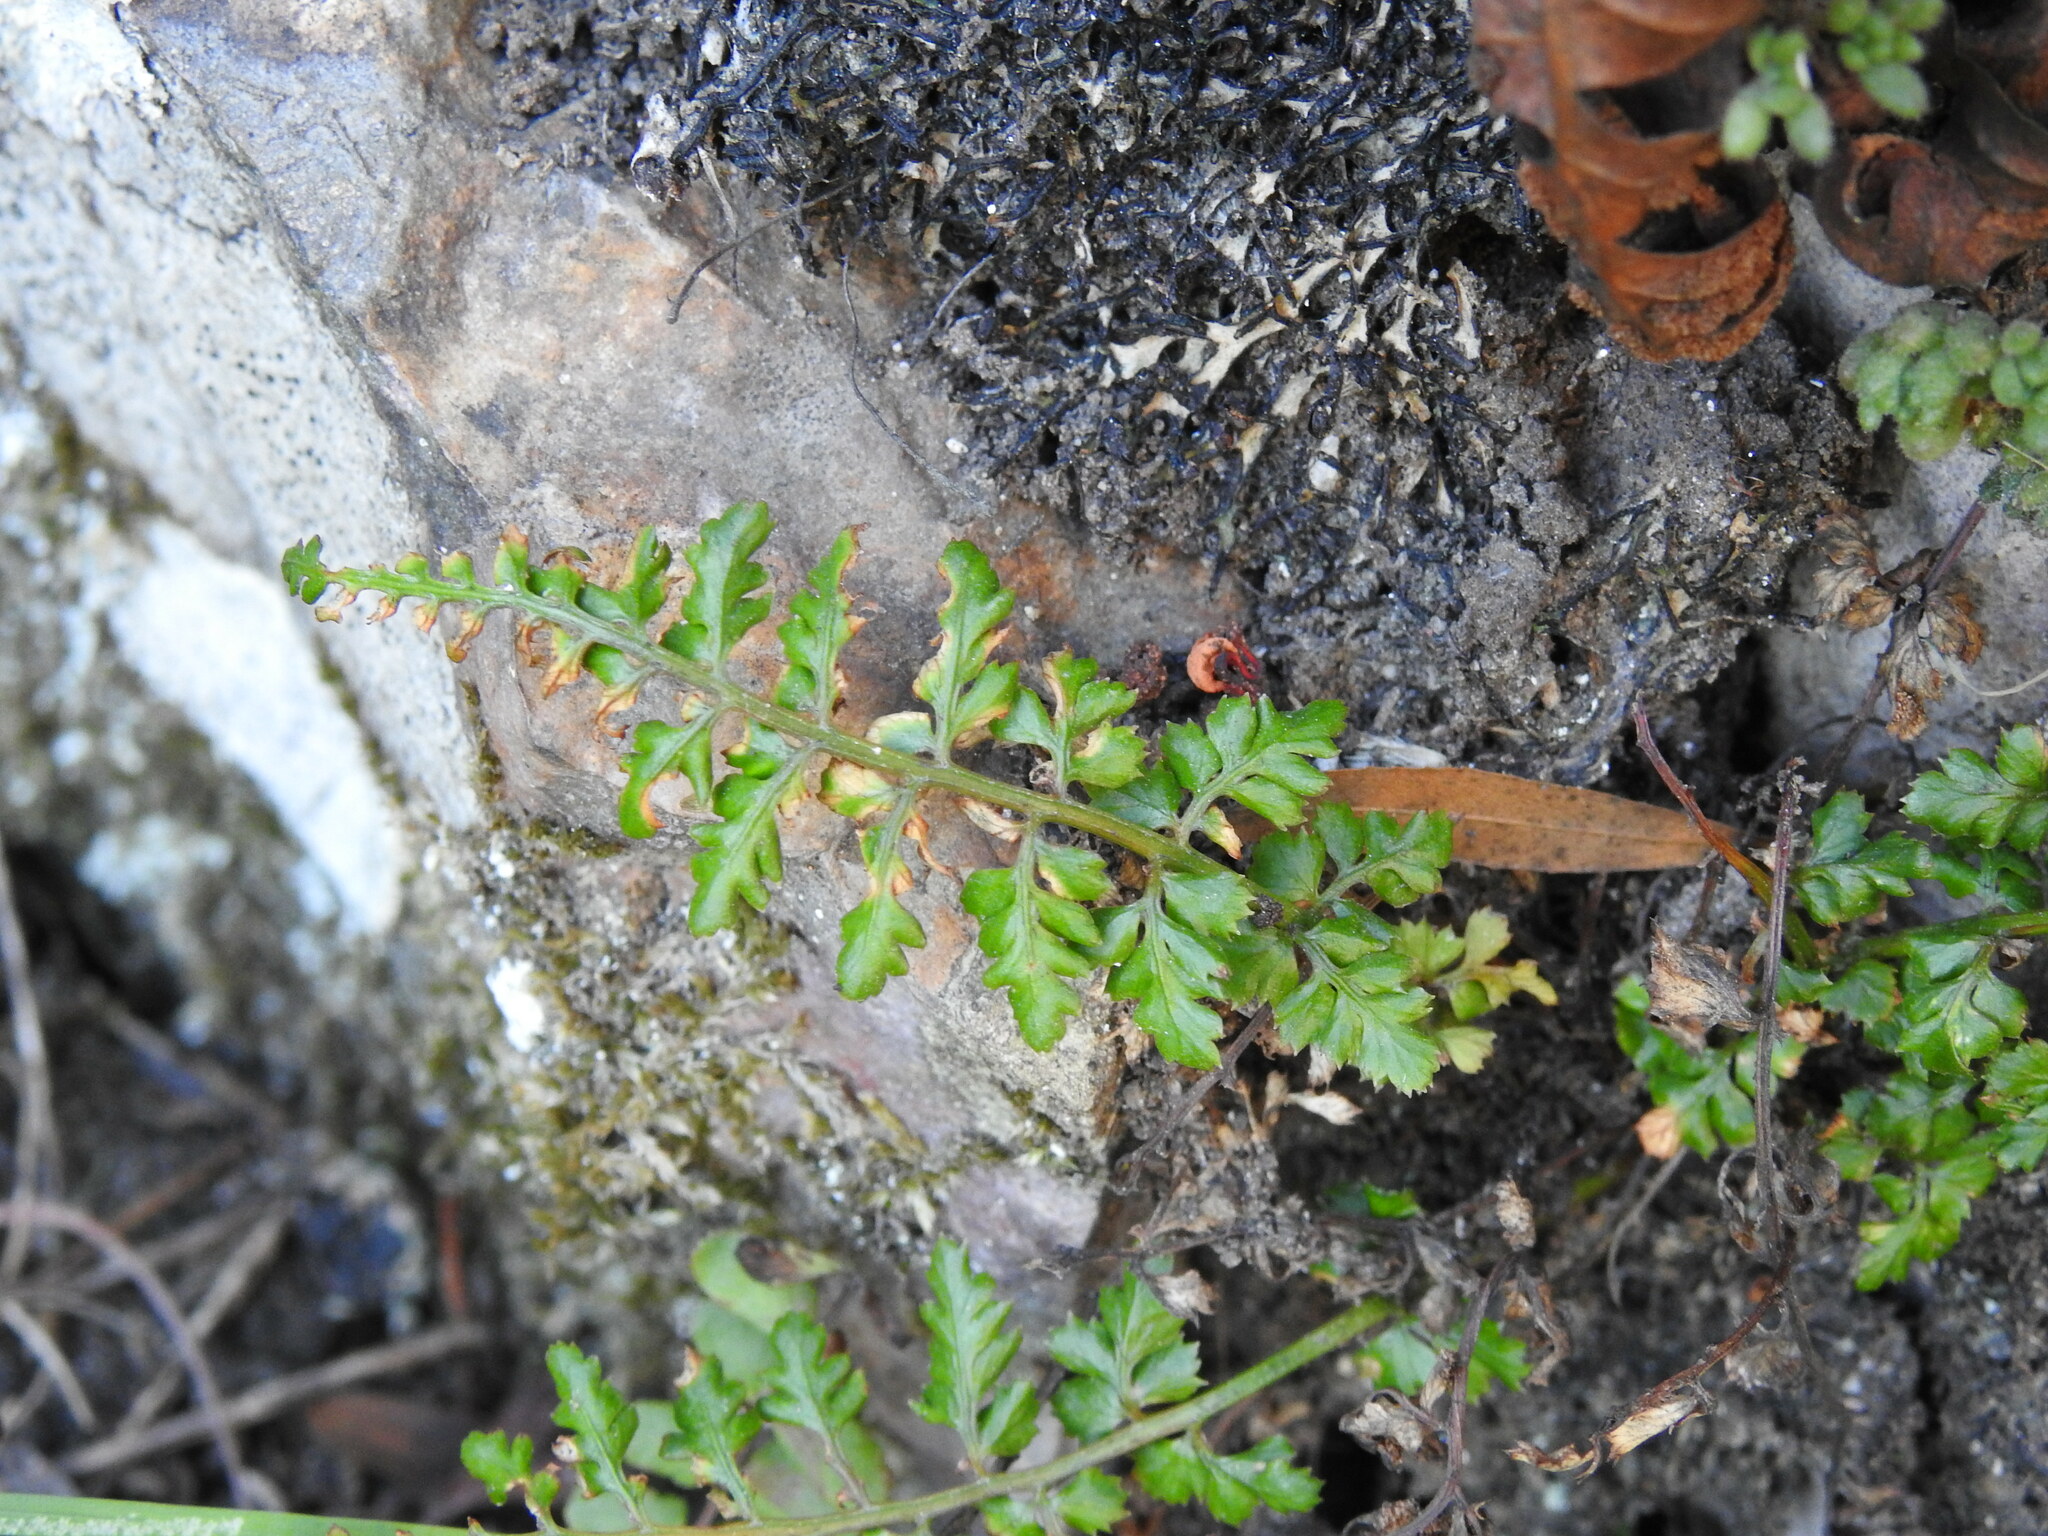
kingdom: Plantae
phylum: Tracheophyta
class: Polypodiopsida
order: Polypodiales
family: Aspleniaceae
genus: Asplenium
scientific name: Asplenium obovatum
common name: Lanceolate spleenwort
